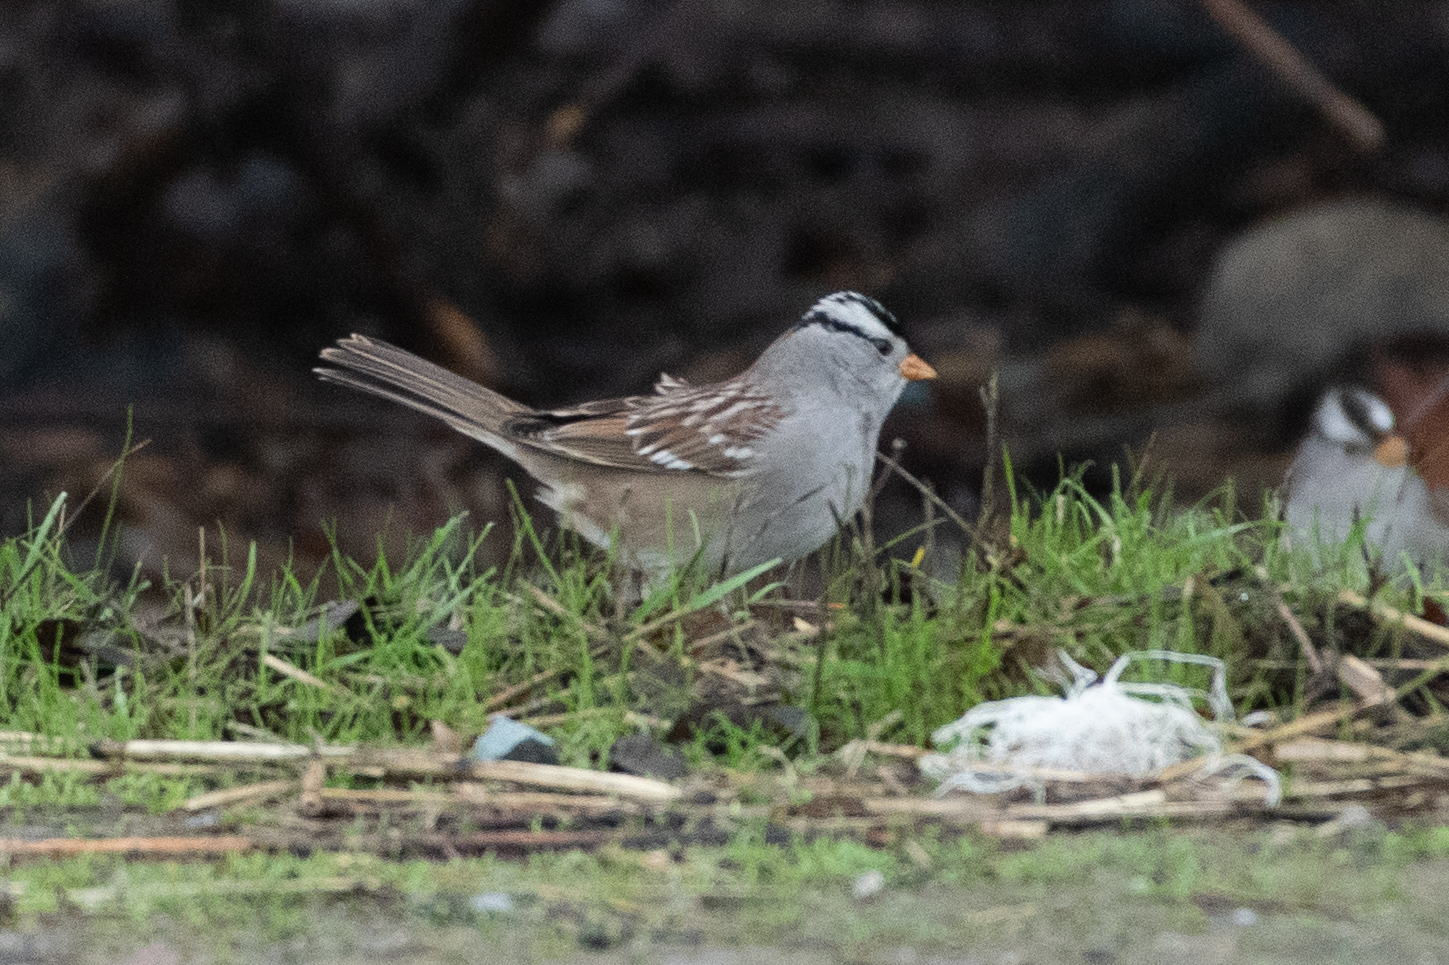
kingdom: Animalia
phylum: Chordata
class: Aves
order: Passeriformes
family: Passerellidae
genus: Zonotrichia
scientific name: Zonotrichia leucophrys
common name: White-crowned sparrow
